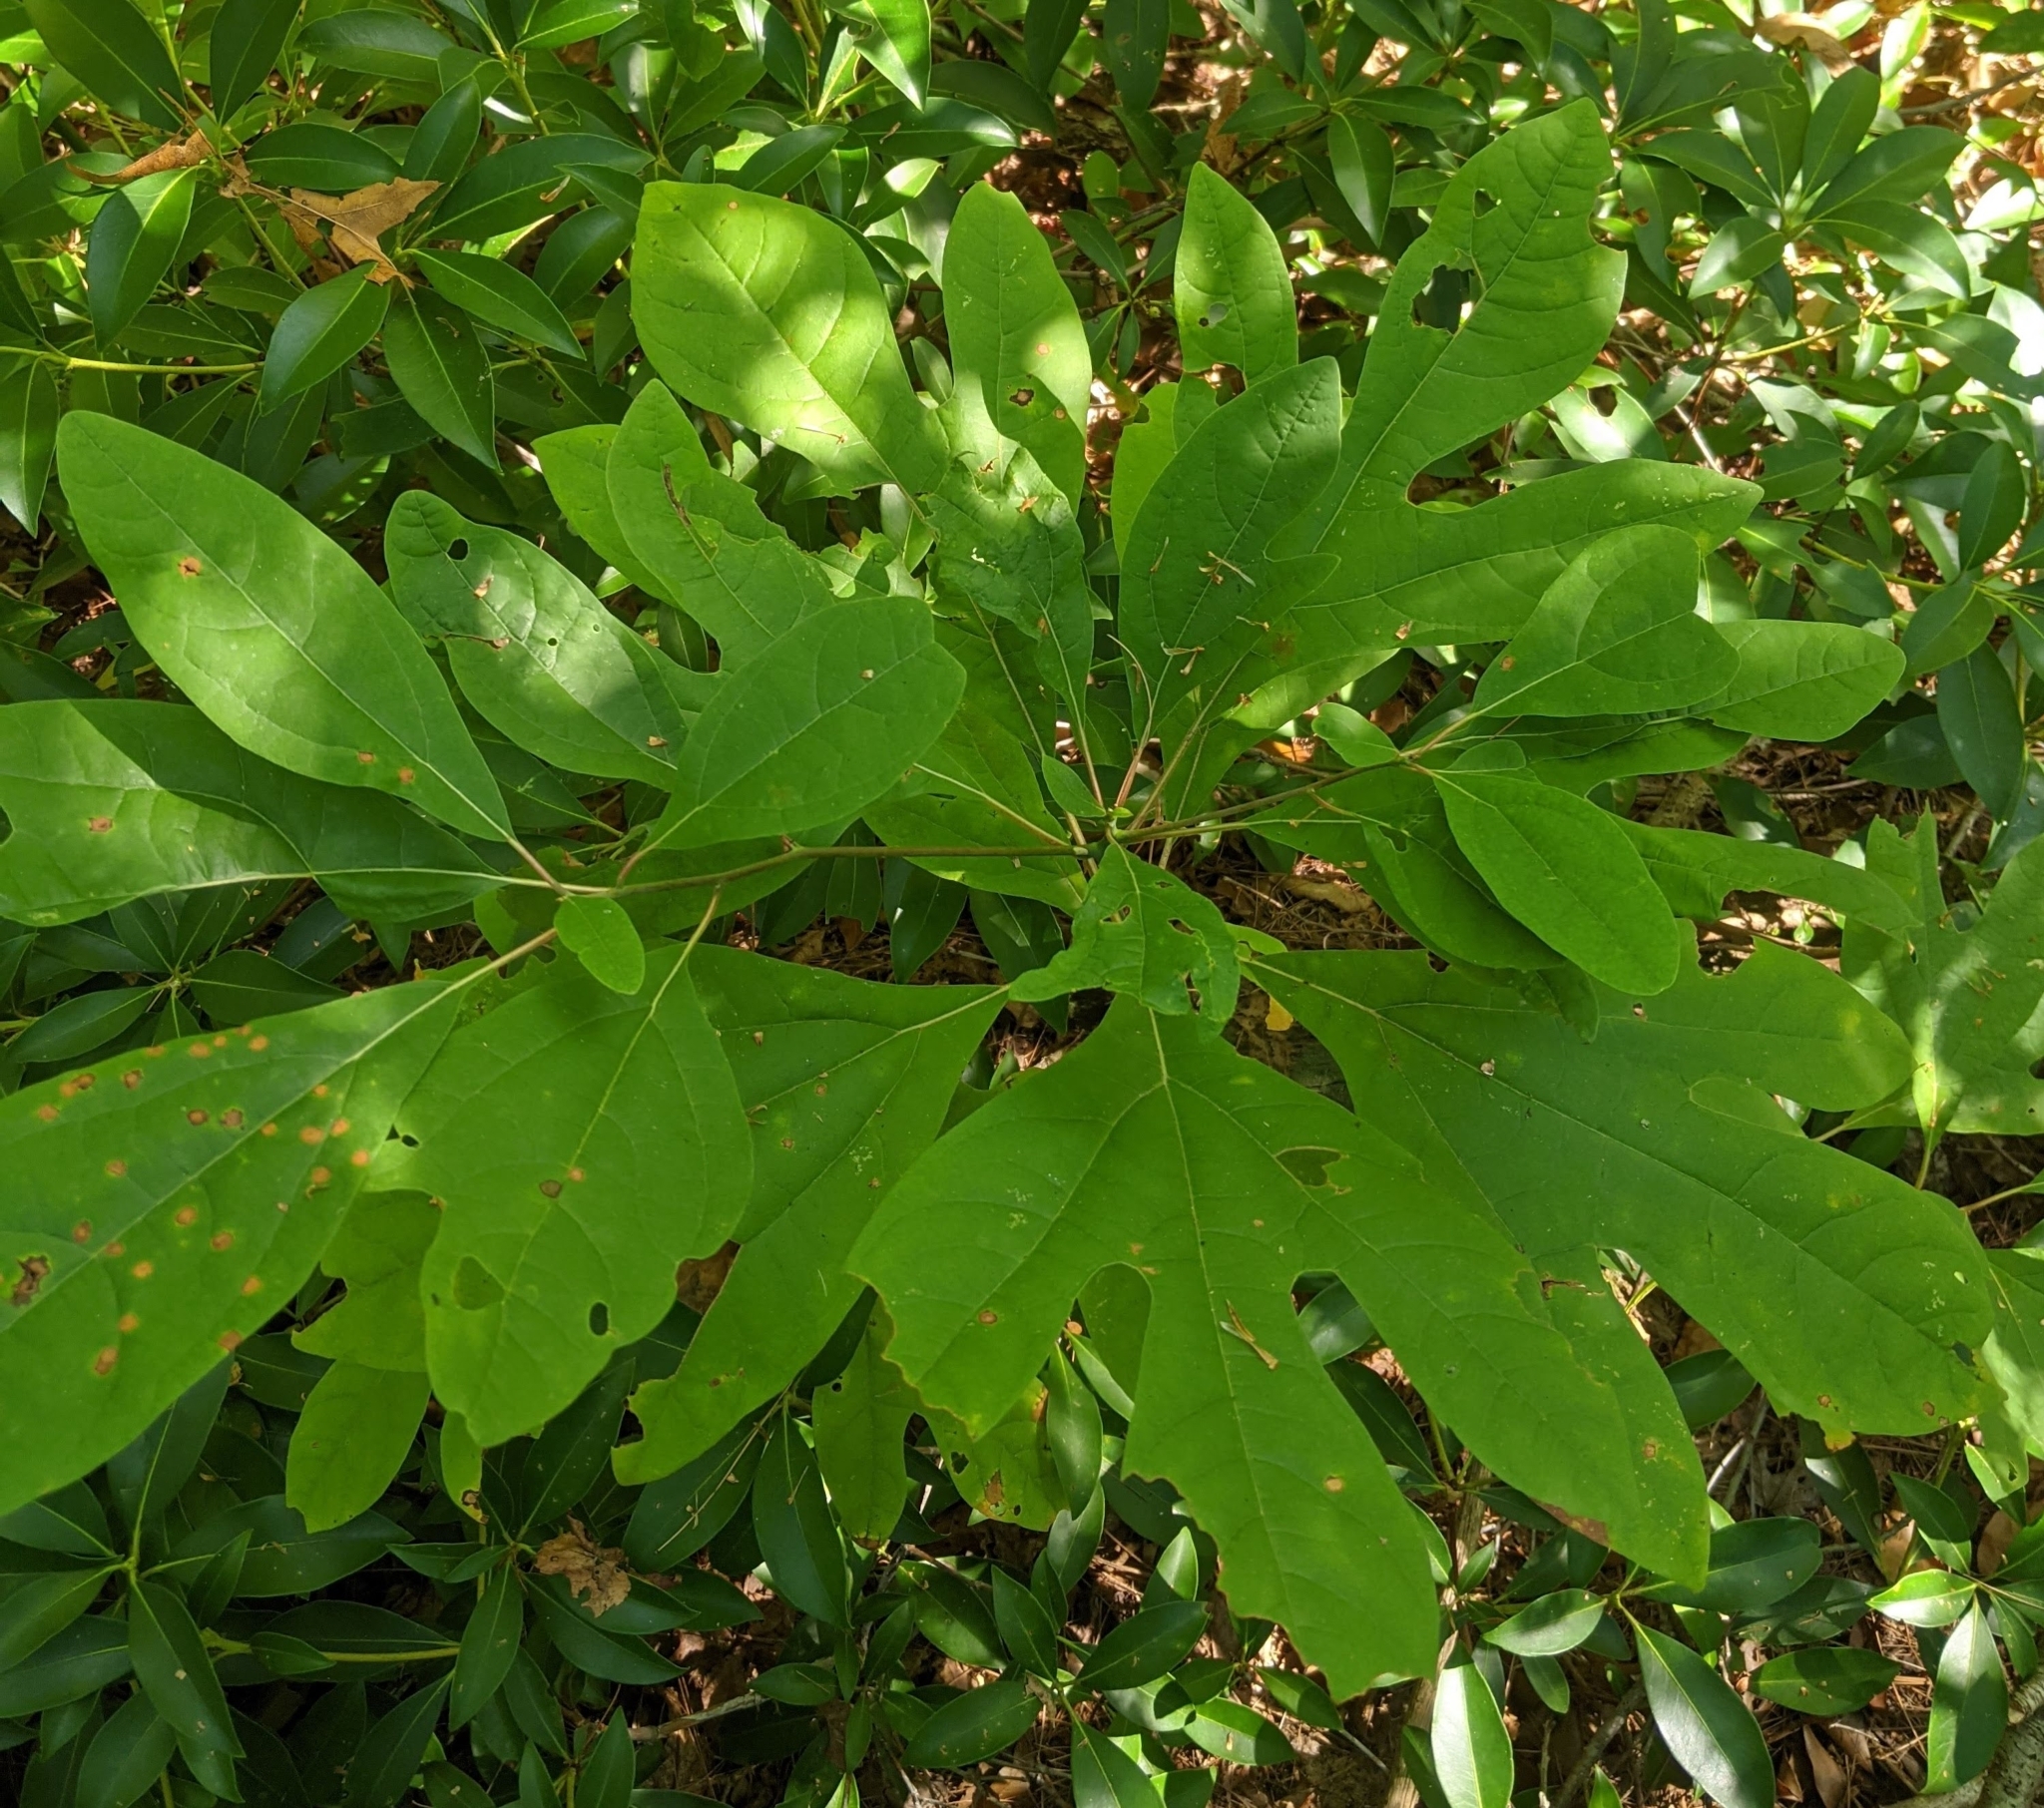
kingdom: Plantae
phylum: Tracheophyta
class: Magnoliopsida
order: Laurales
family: Lauraceae
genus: Sassafras
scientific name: Sassafras albidum
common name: Sassafras
